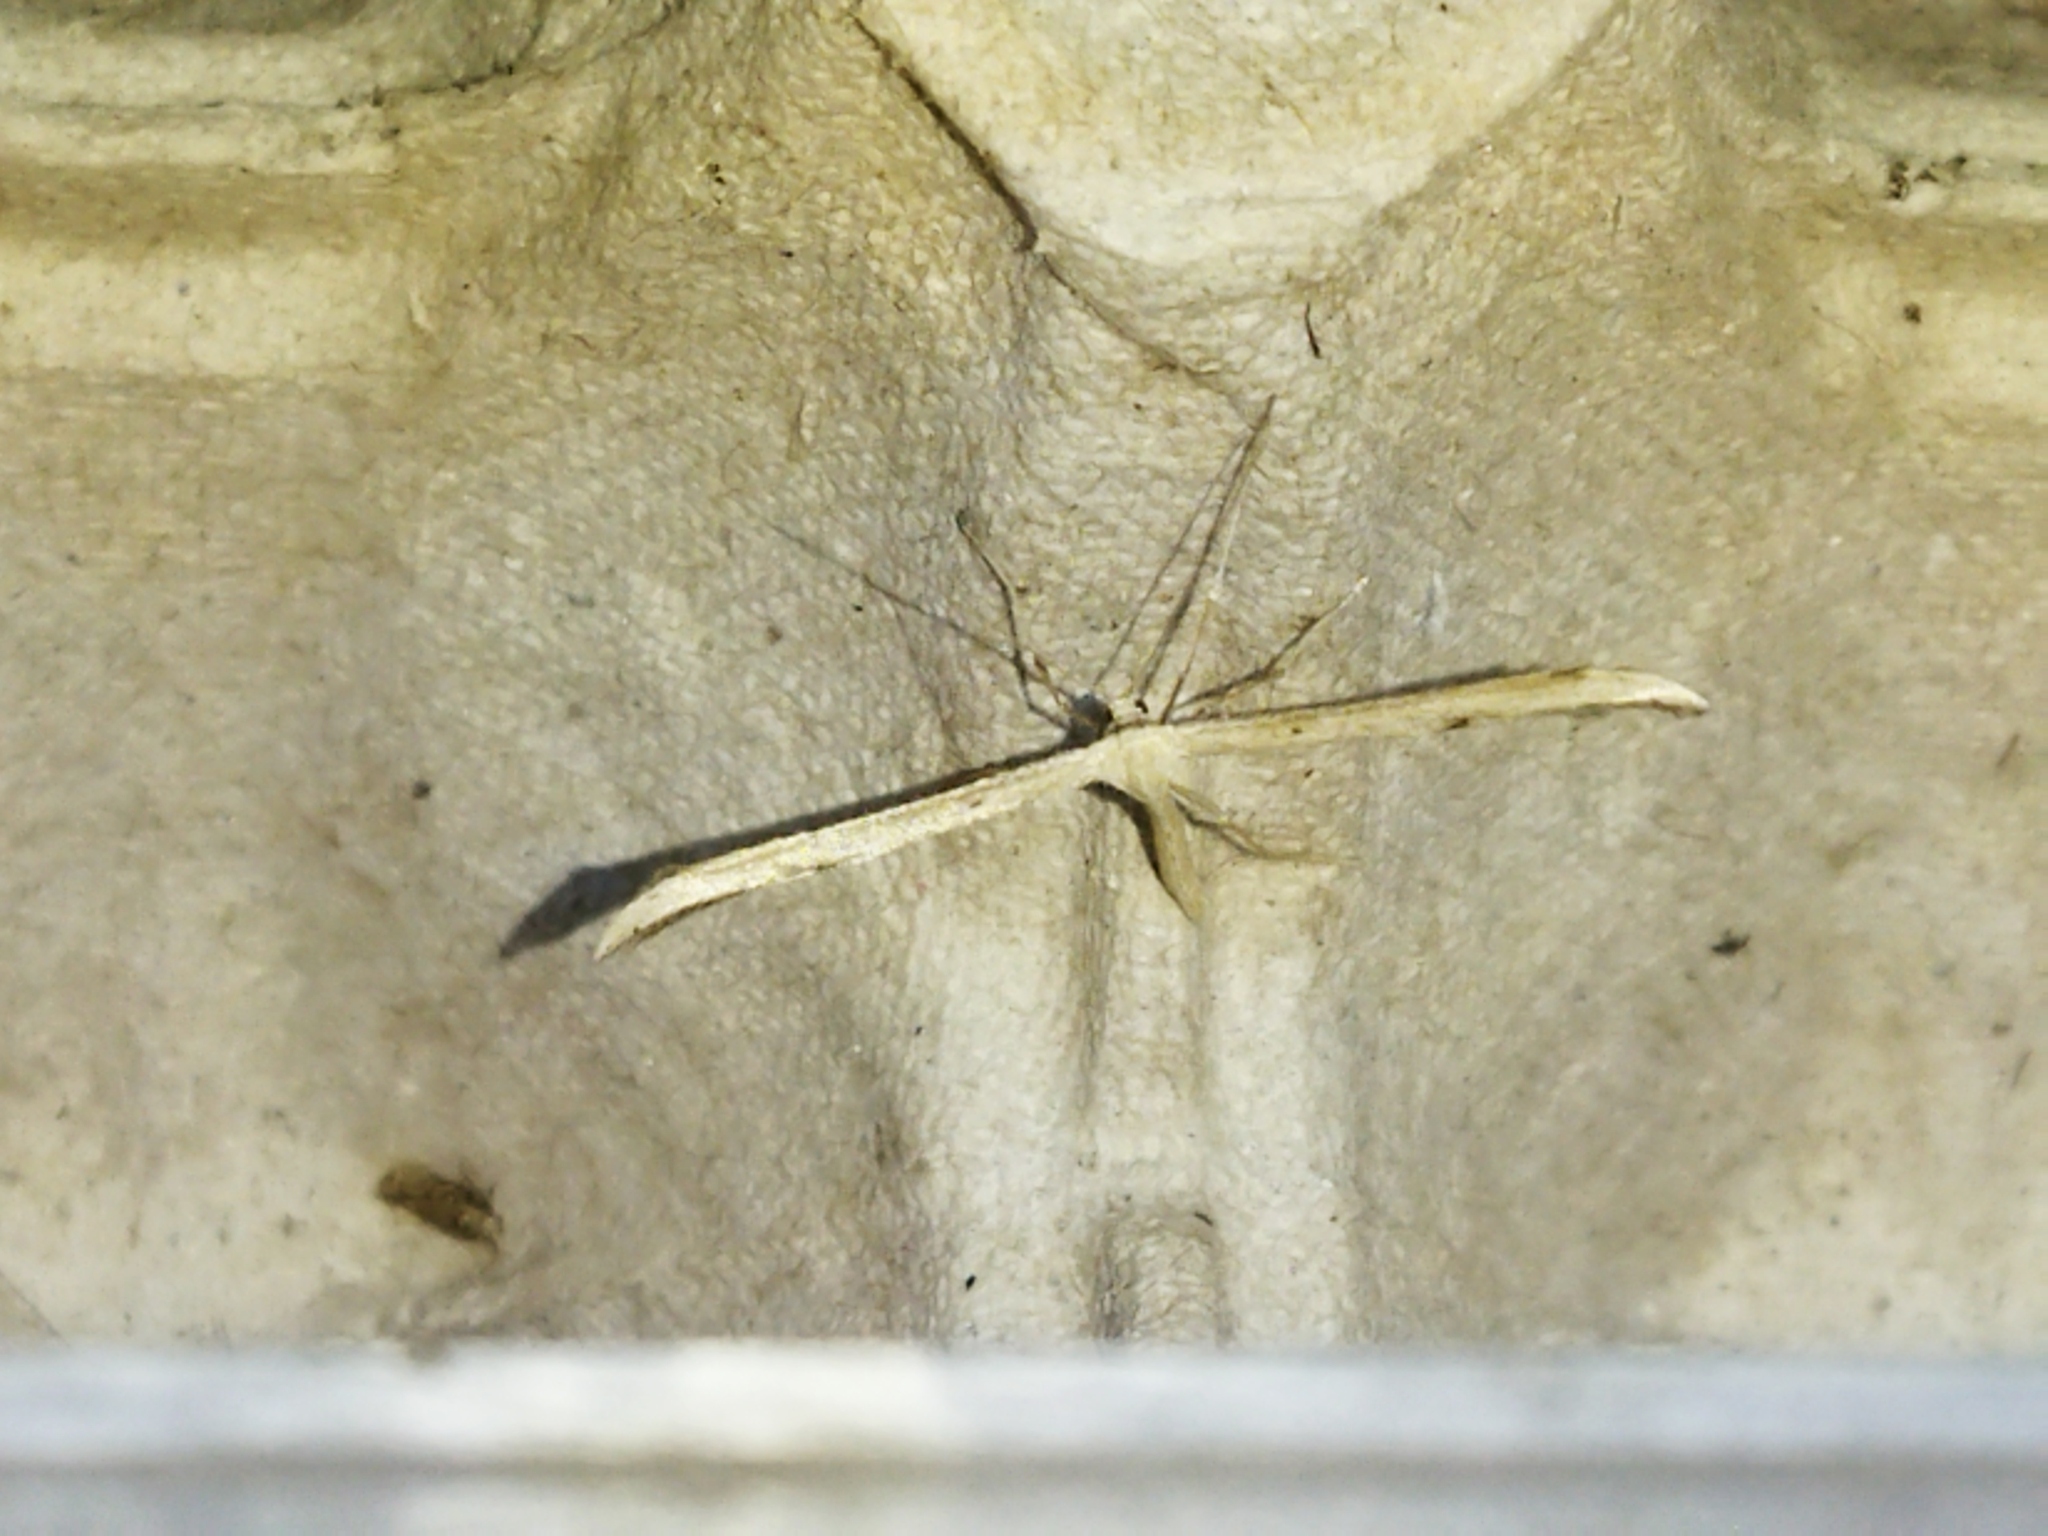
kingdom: Animalia
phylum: Arthropoda
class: Insecta
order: Lepidoptera
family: Pterophoridae
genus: Emmelina
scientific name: Emmelina monodactyla
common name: Common plume
